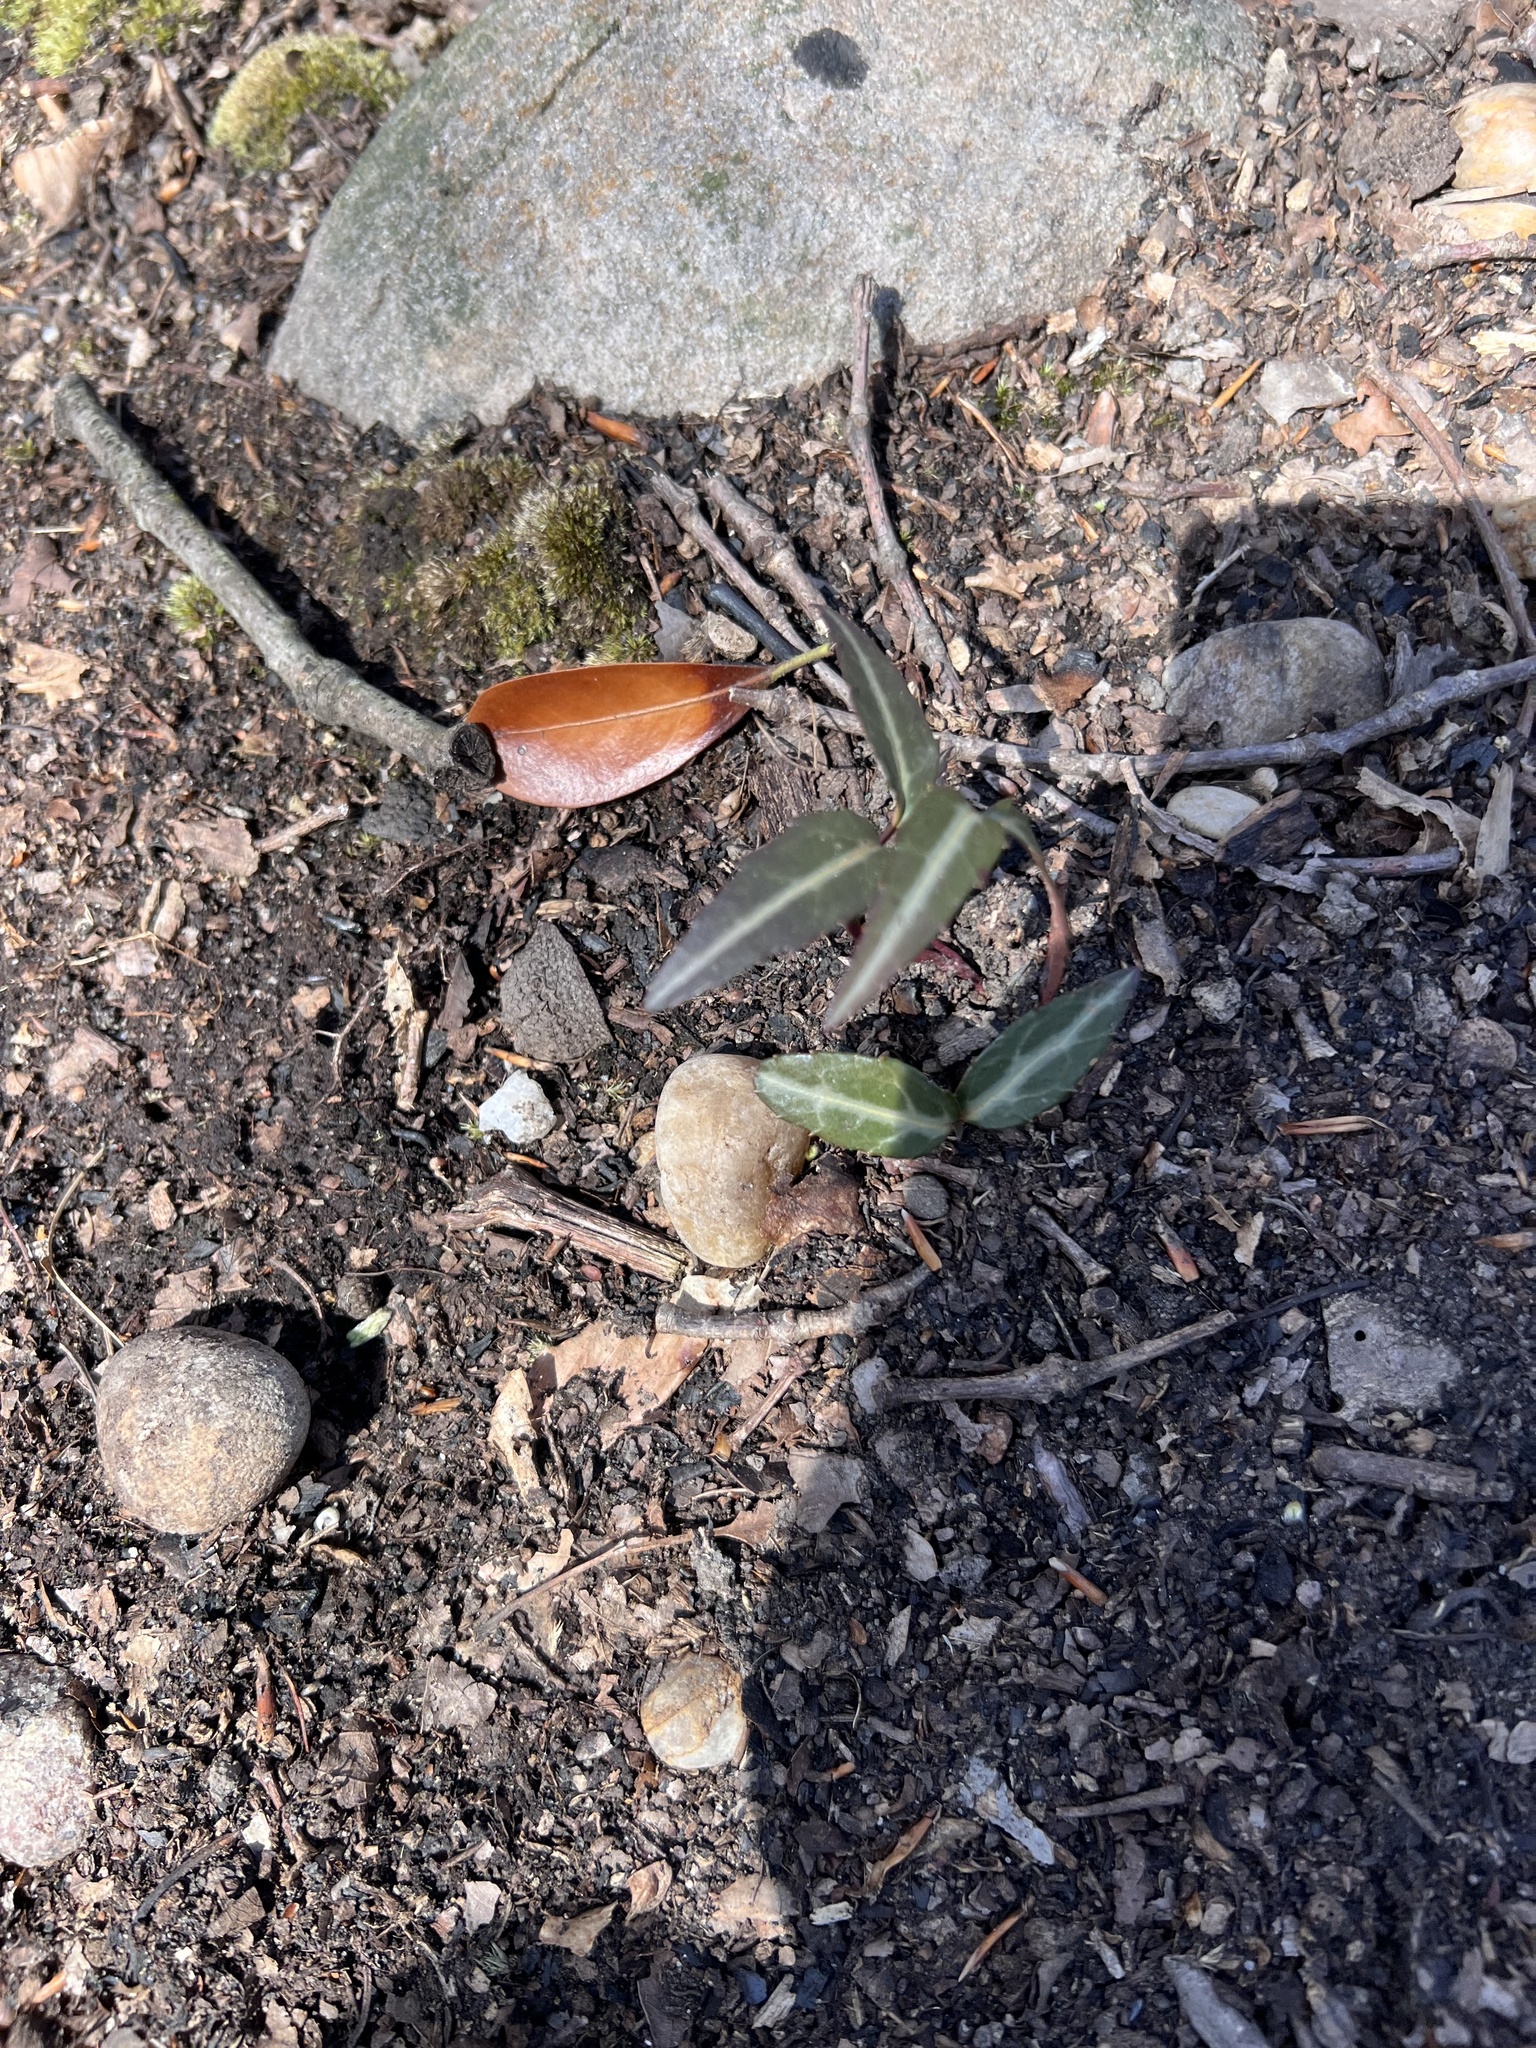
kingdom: Plantae
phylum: Tracheophyta
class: Magnoliopsida
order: Ericales
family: Ericaceae
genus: Chimaphila
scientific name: Chimaphila maculata
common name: Spotted pipsissewa
